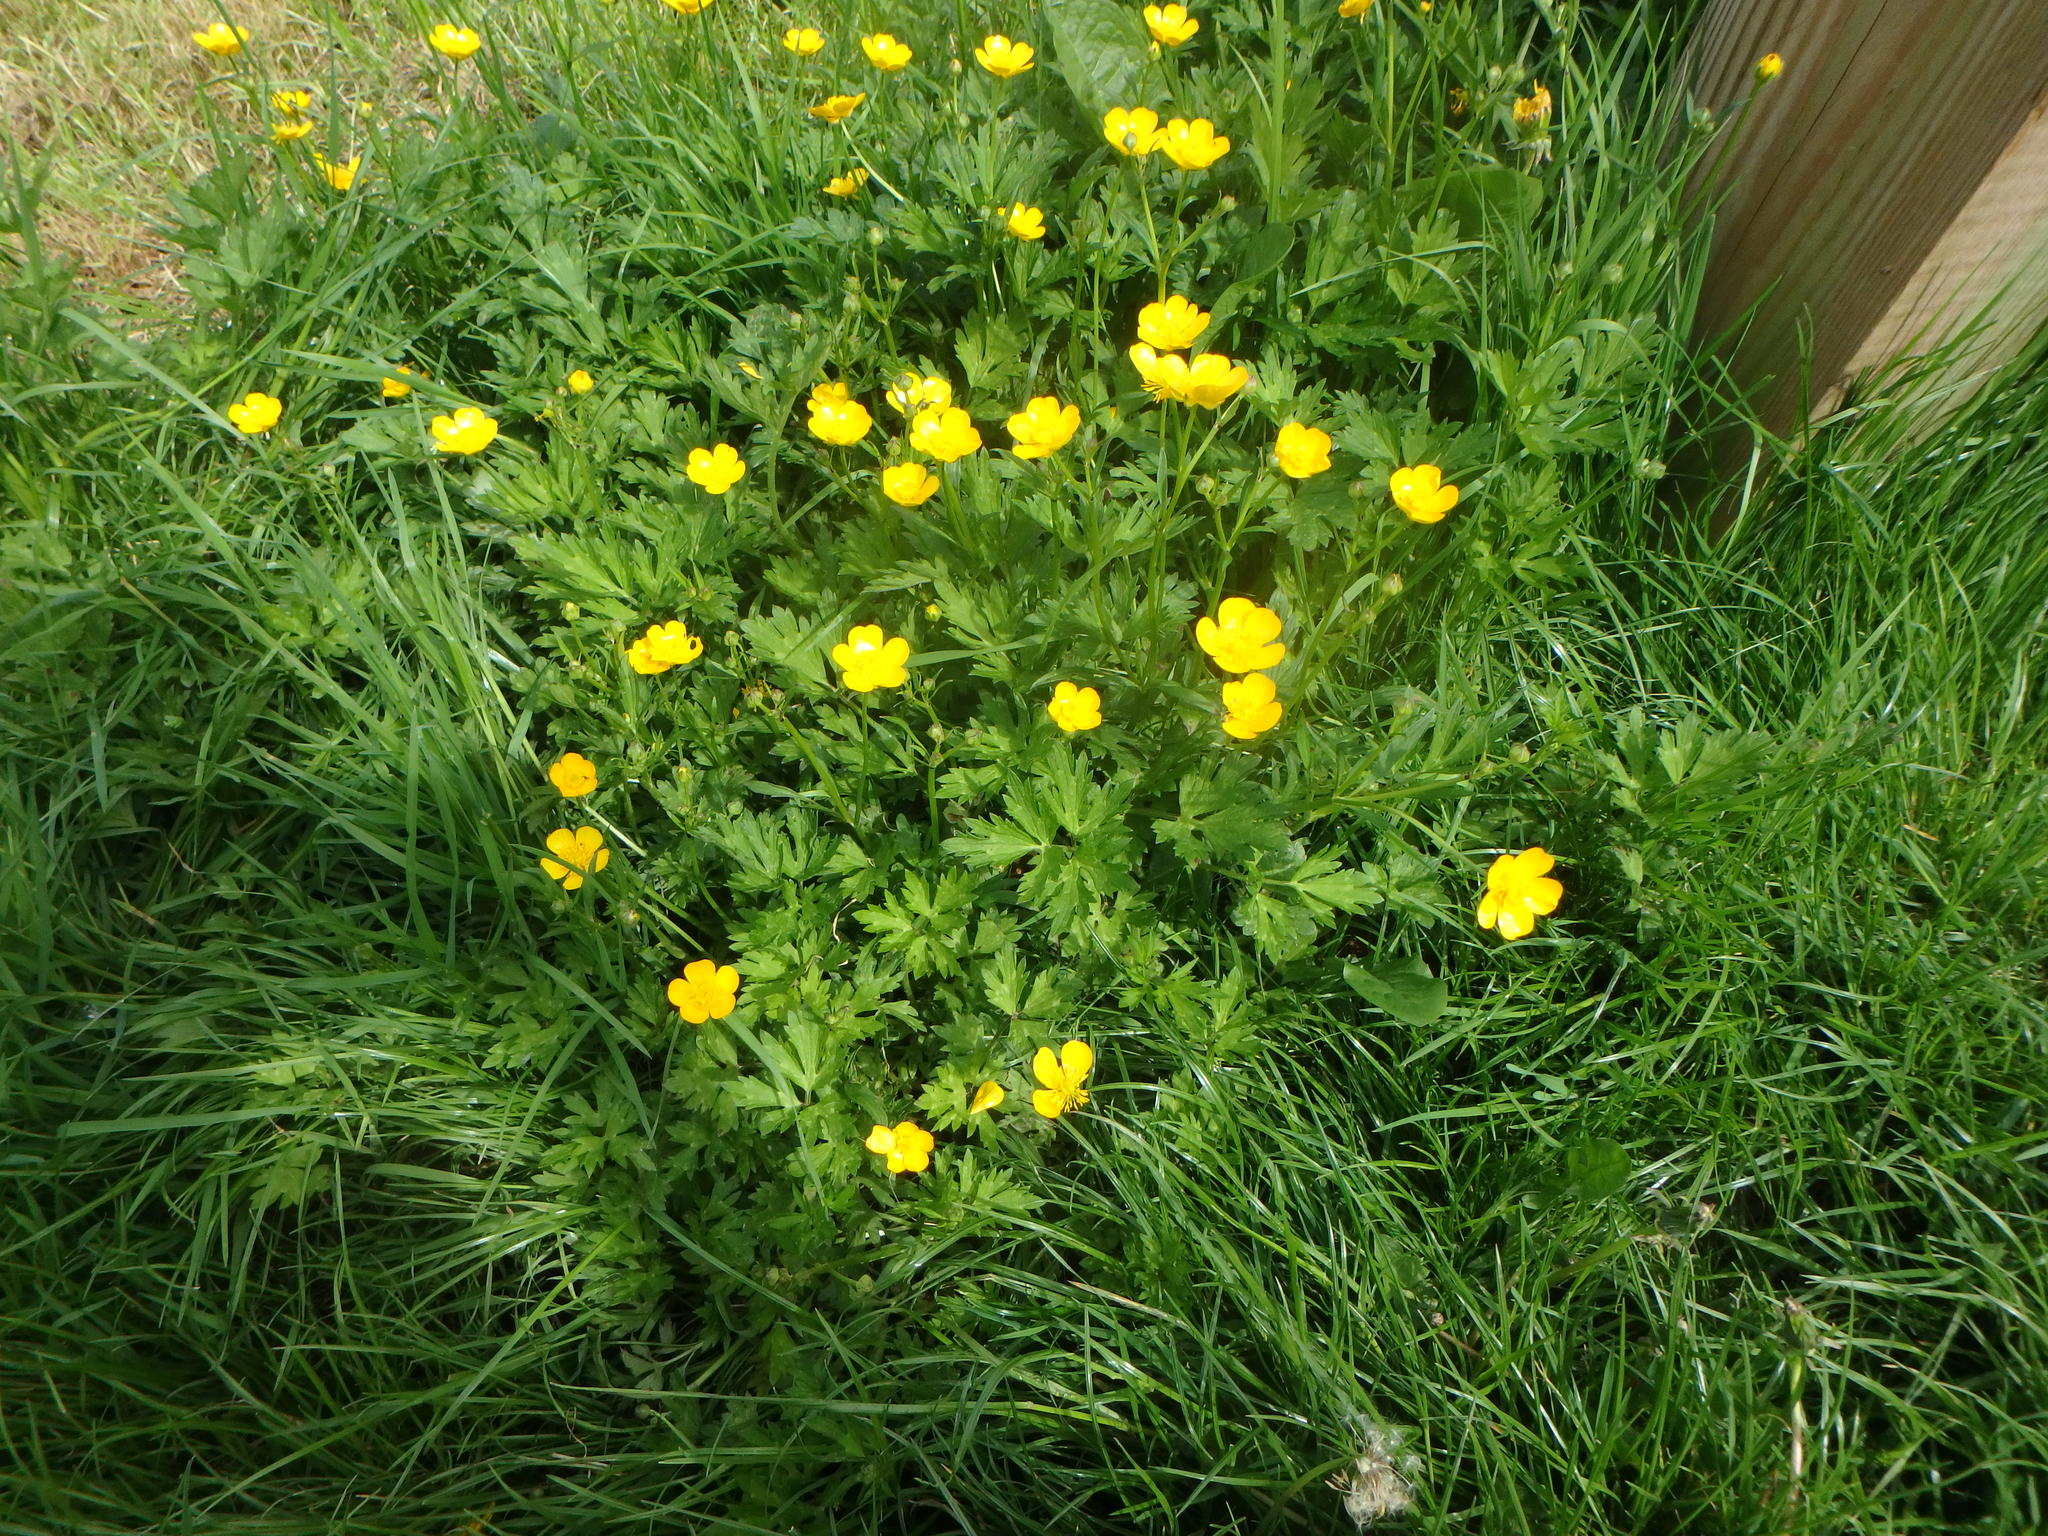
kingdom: Plantae
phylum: Tracheophyta
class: Magnoliopsida
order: Ranunculales
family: Ranunculaceae
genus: Ranunculus
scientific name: Ranunculus repens
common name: Creeping buttercup
